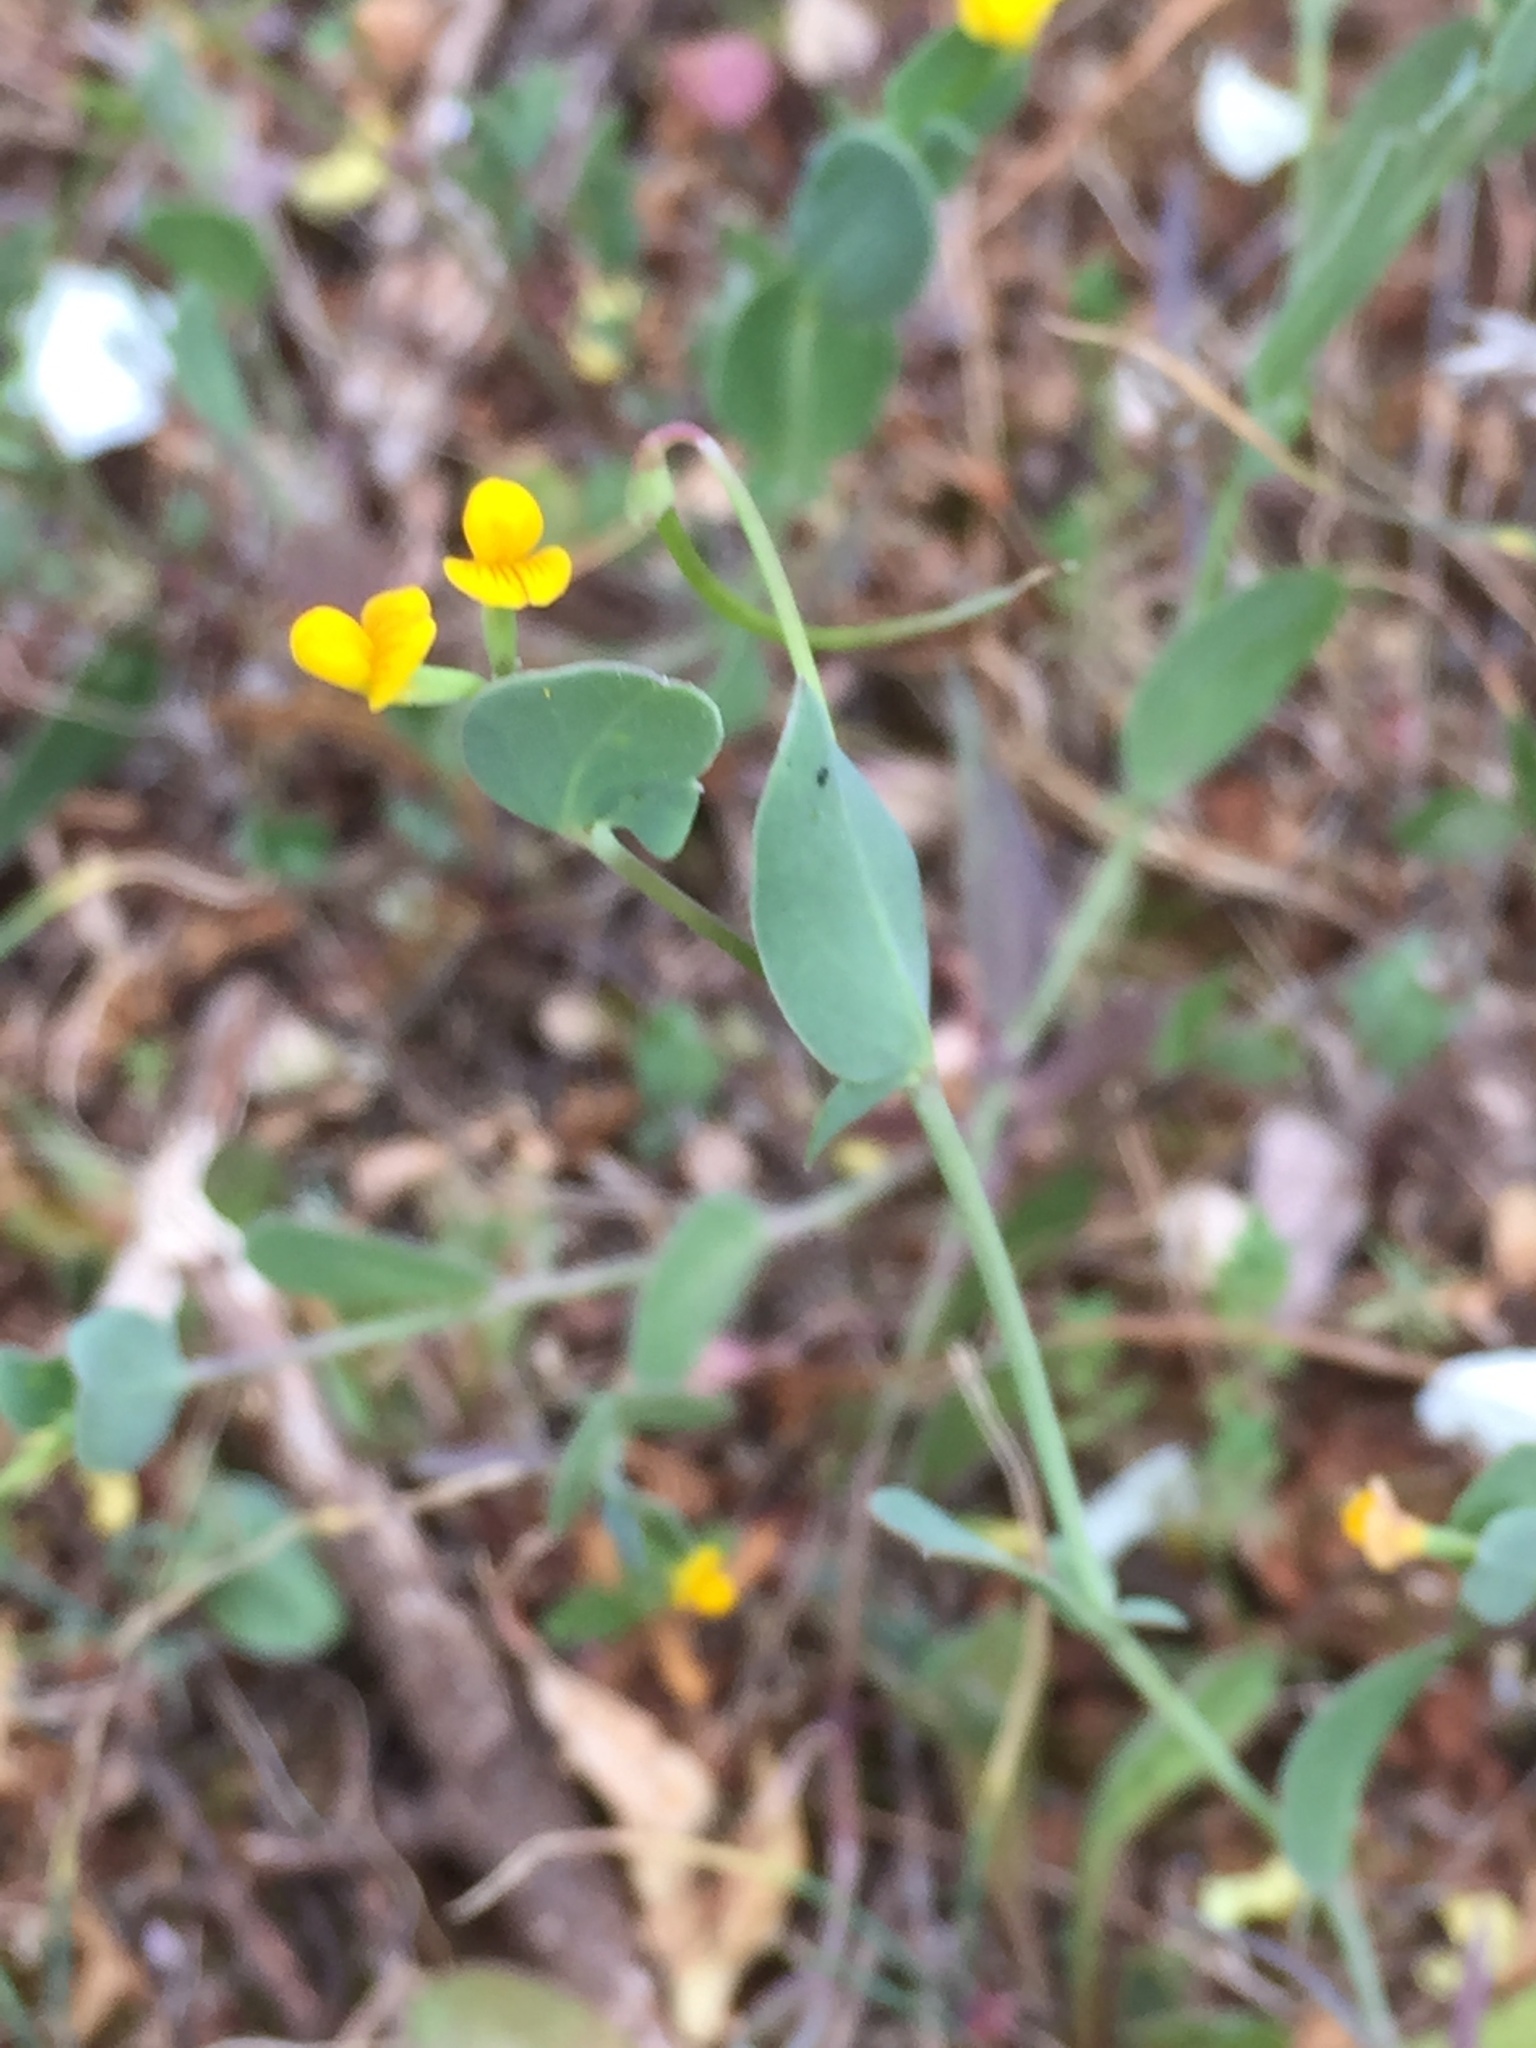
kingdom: Plantae
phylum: Tracheophyta
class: Magnoliopsida
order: Fabales
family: Fabaceae
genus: Coronilla
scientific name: Coronilla scorpioides
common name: Annual scorpion-vetch
